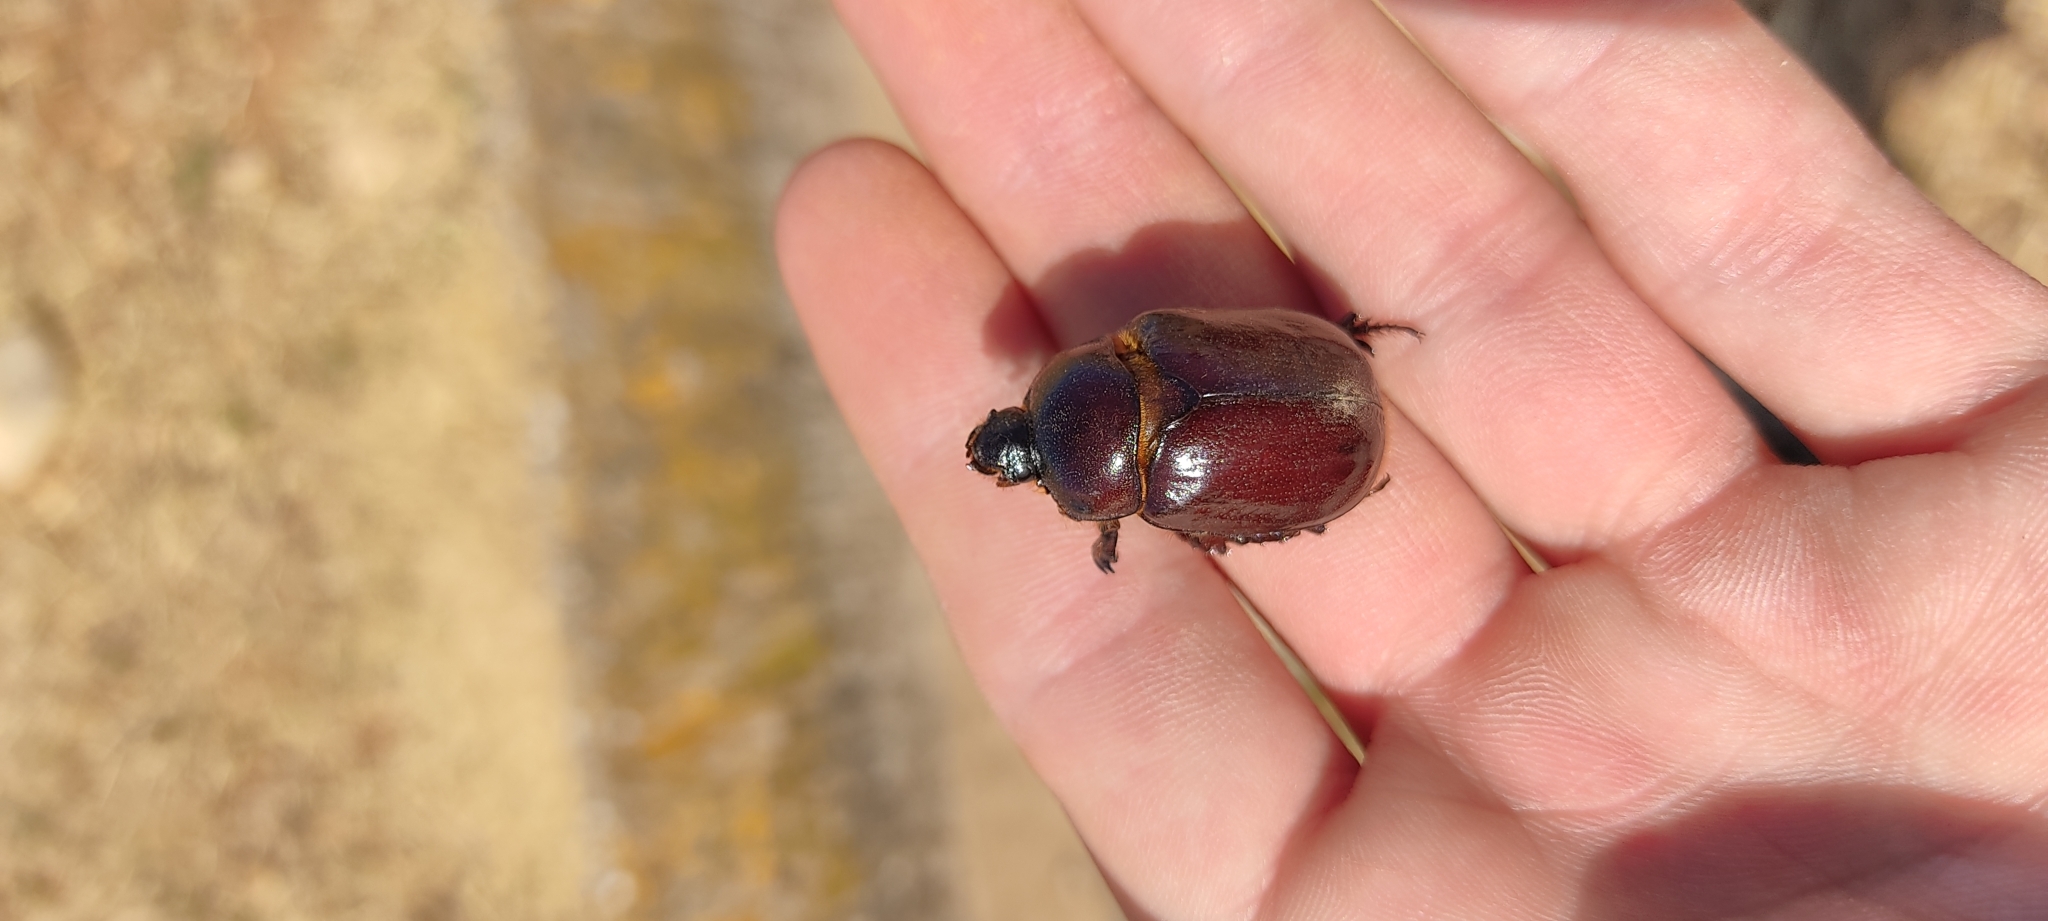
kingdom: Animalia
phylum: Arthropoda
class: Insecta
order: Coleoptera
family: Scarabaeidae
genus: Oryctes
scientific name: Oryctes nasicornis
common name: European rhinoceros beetle
